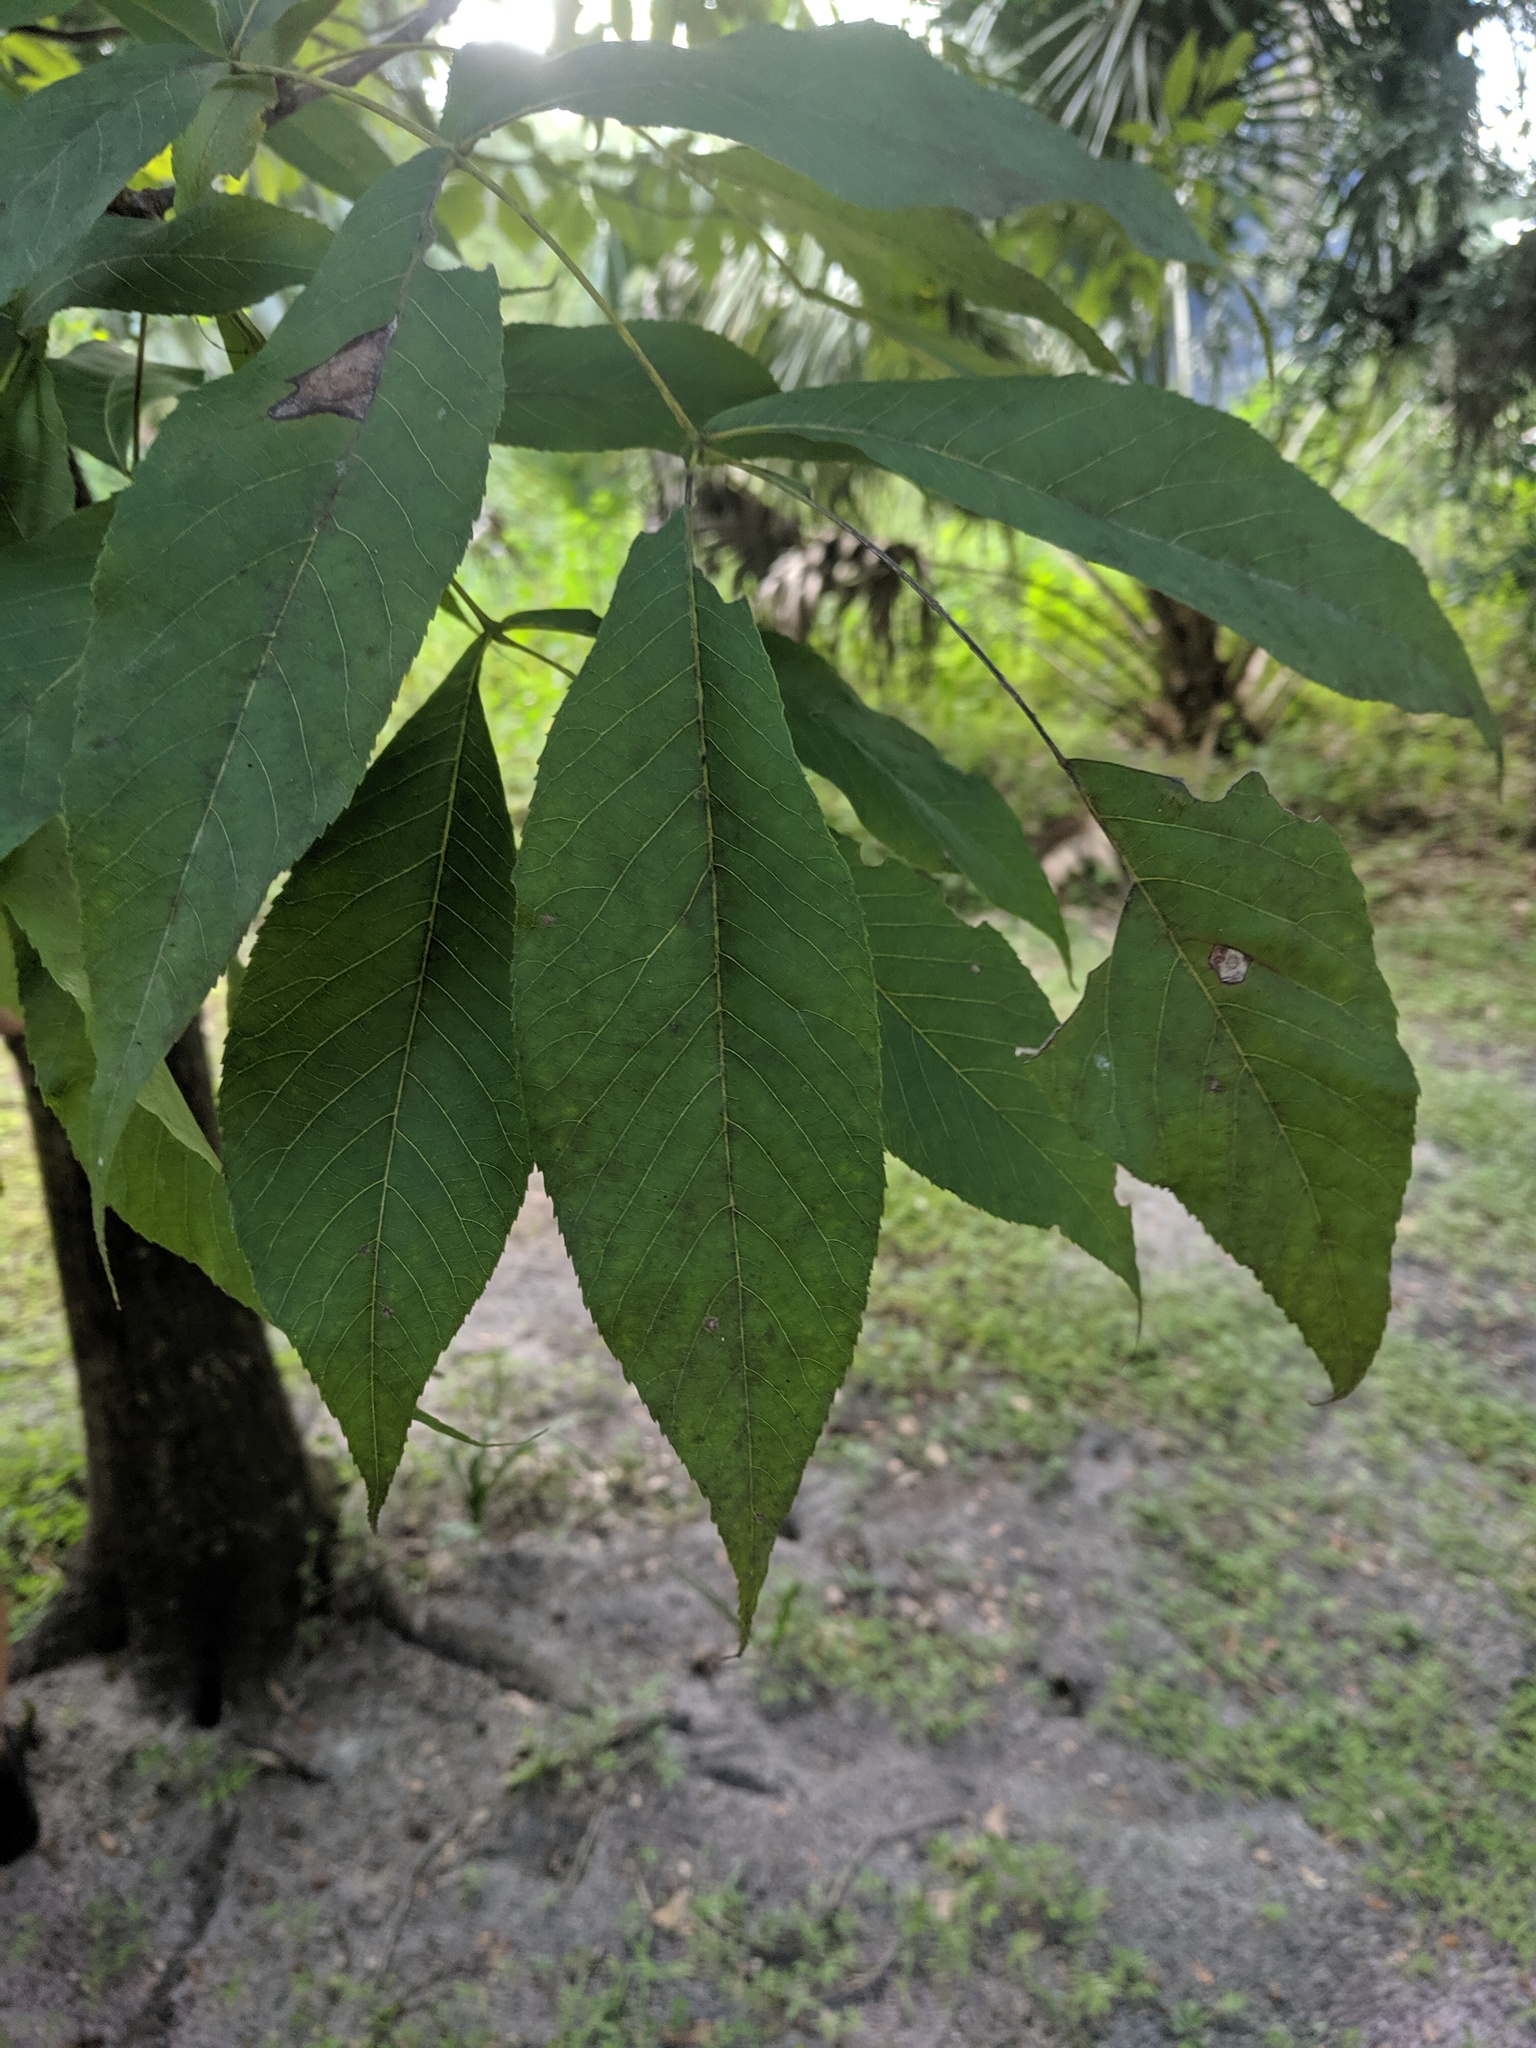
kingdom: Plantae
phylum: Tracheophyta
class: Magnoliopsida
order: Fagales
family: Juglandaceae
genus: Carya
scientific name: Carya glabra
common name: Pignut hickory
